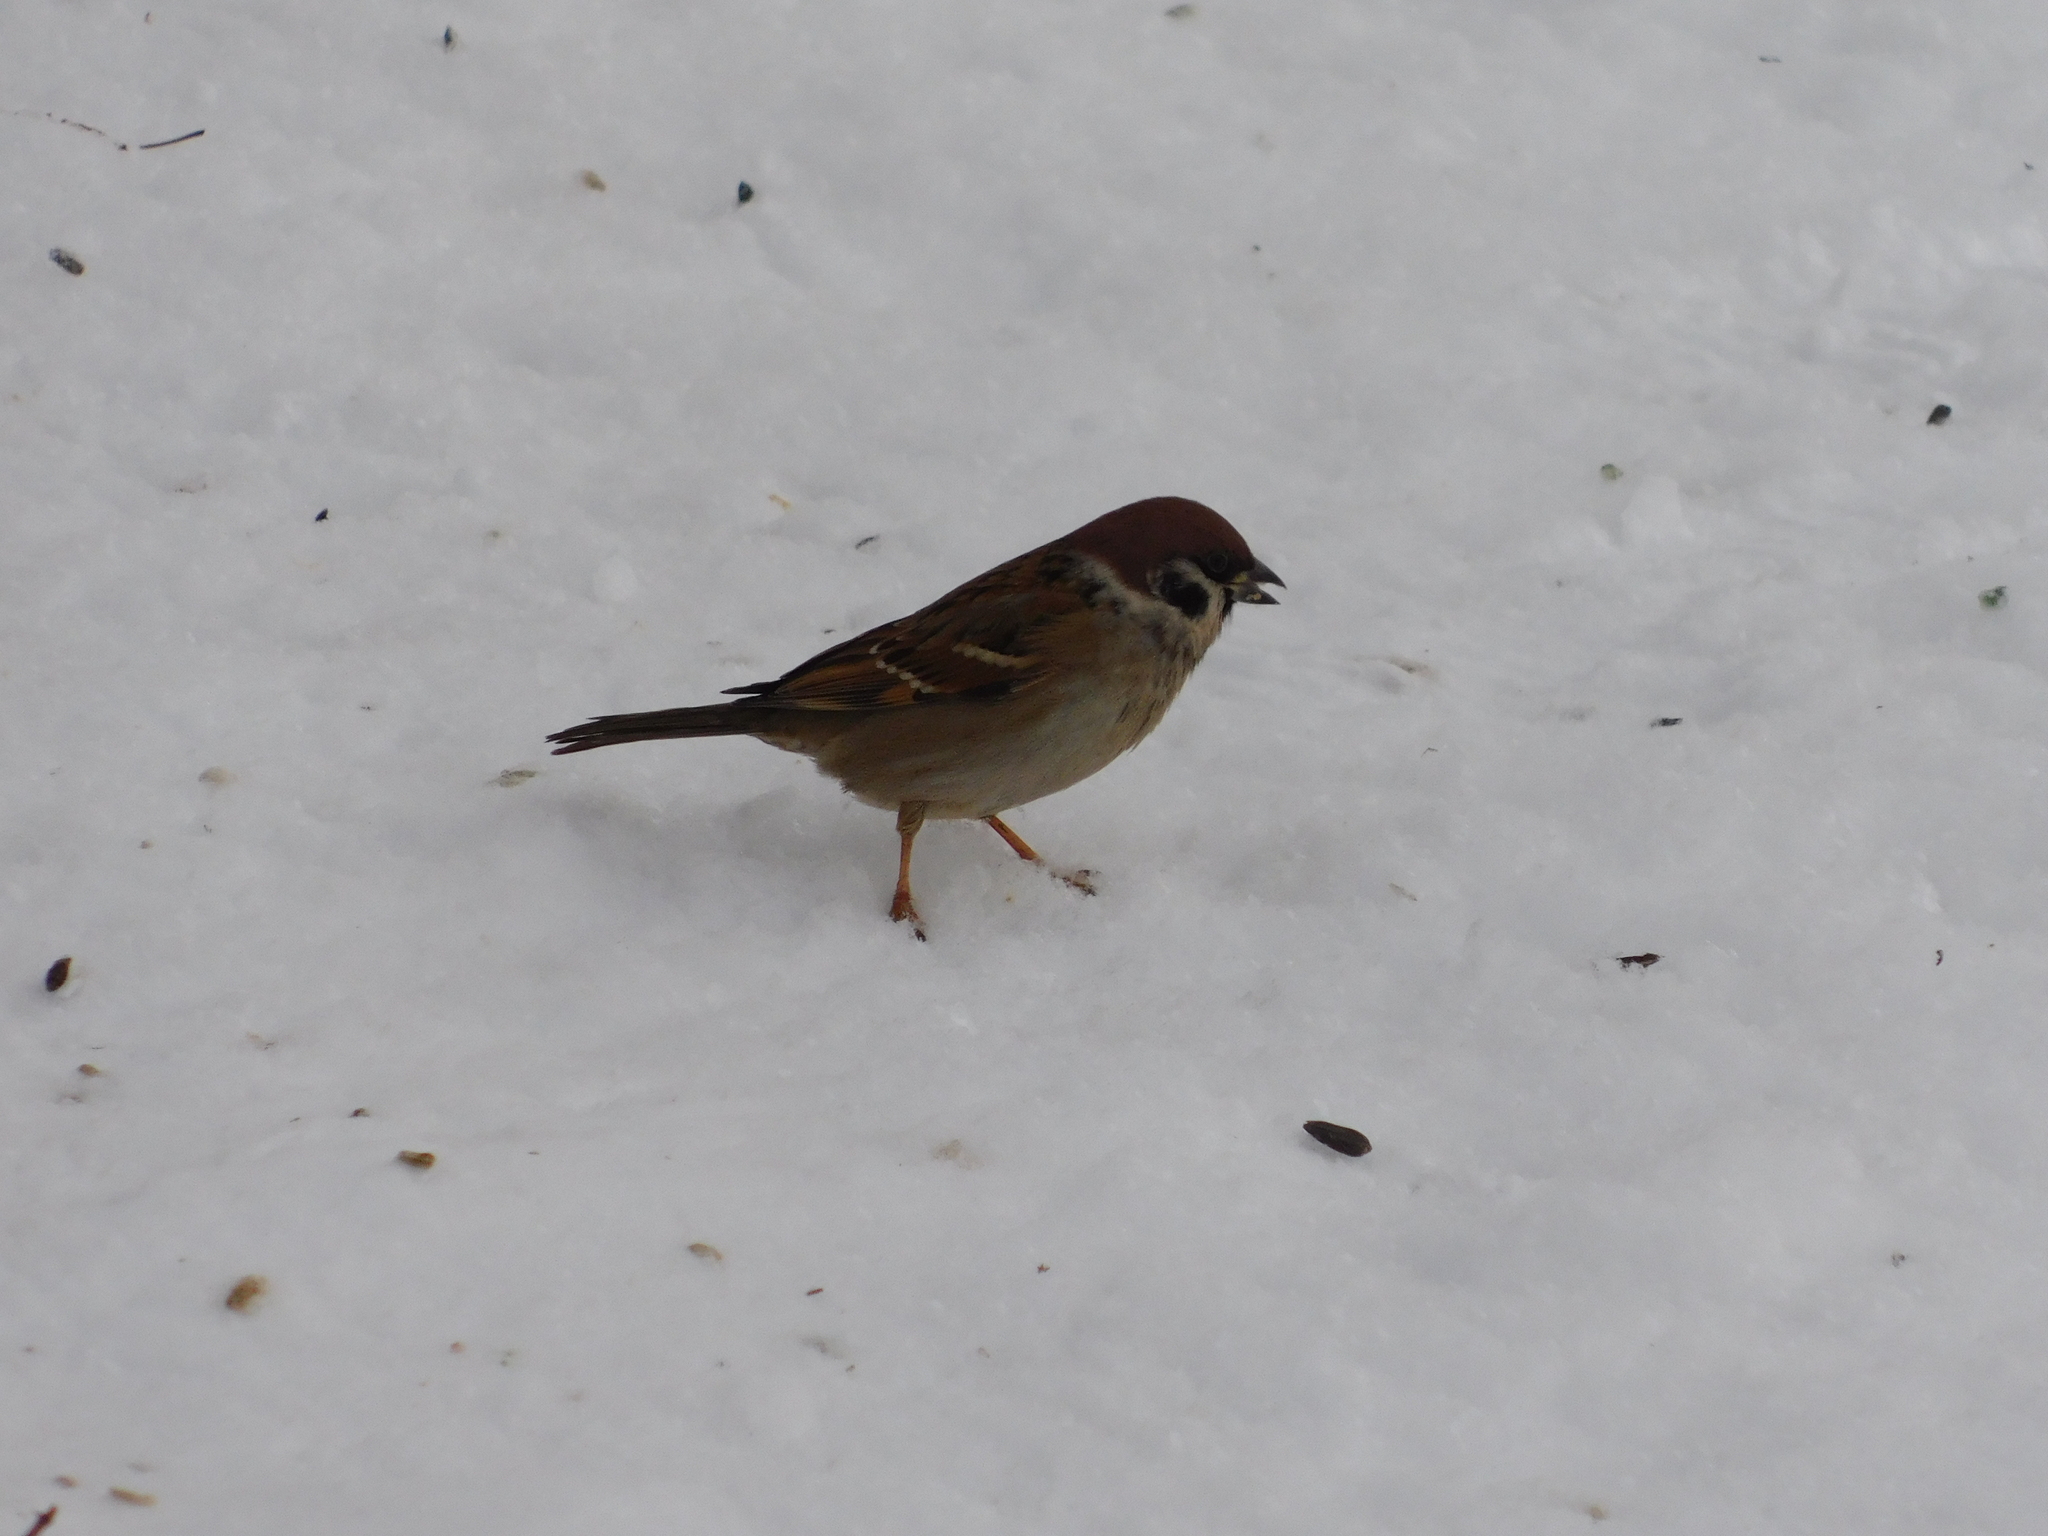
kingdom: Animalia
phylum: Chordata
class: Aves
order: Passeriformes
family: Passeridae
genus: Passer
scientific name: Passer montanus
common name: Eurasian tree sparrow
